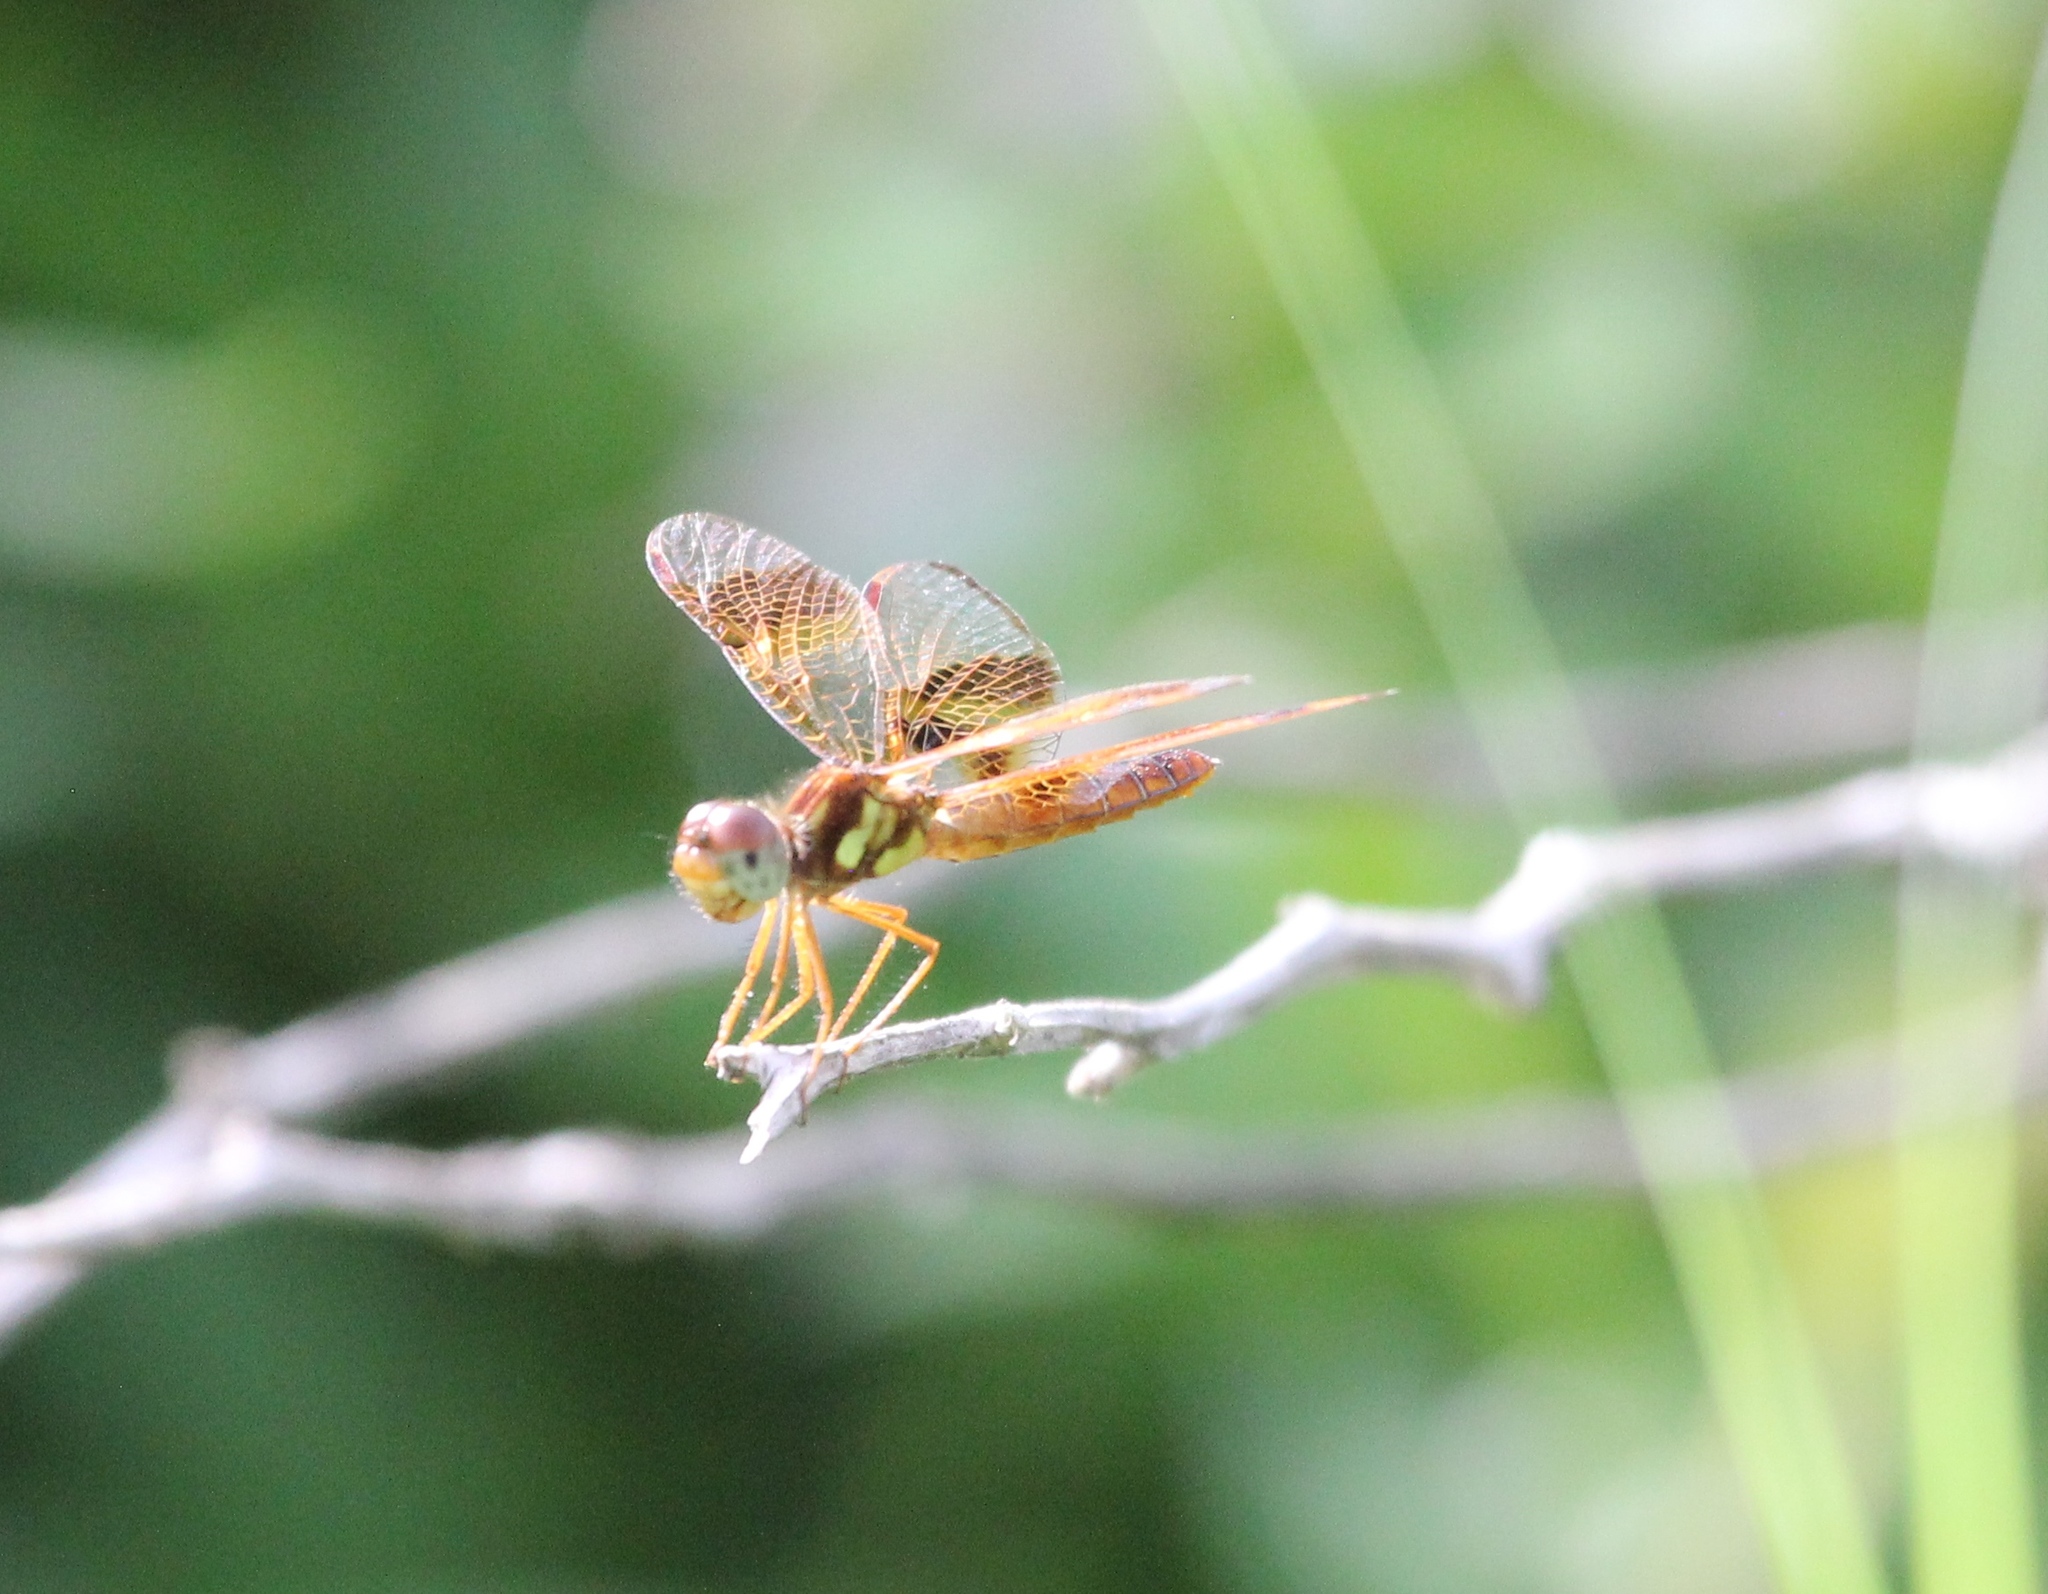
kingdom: Animalia
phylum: Arthropoda
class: Insecta
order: Odonata
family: Libellulidae
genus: Perithemis
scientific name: Perithemis tenera
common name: Eastern amberwing
